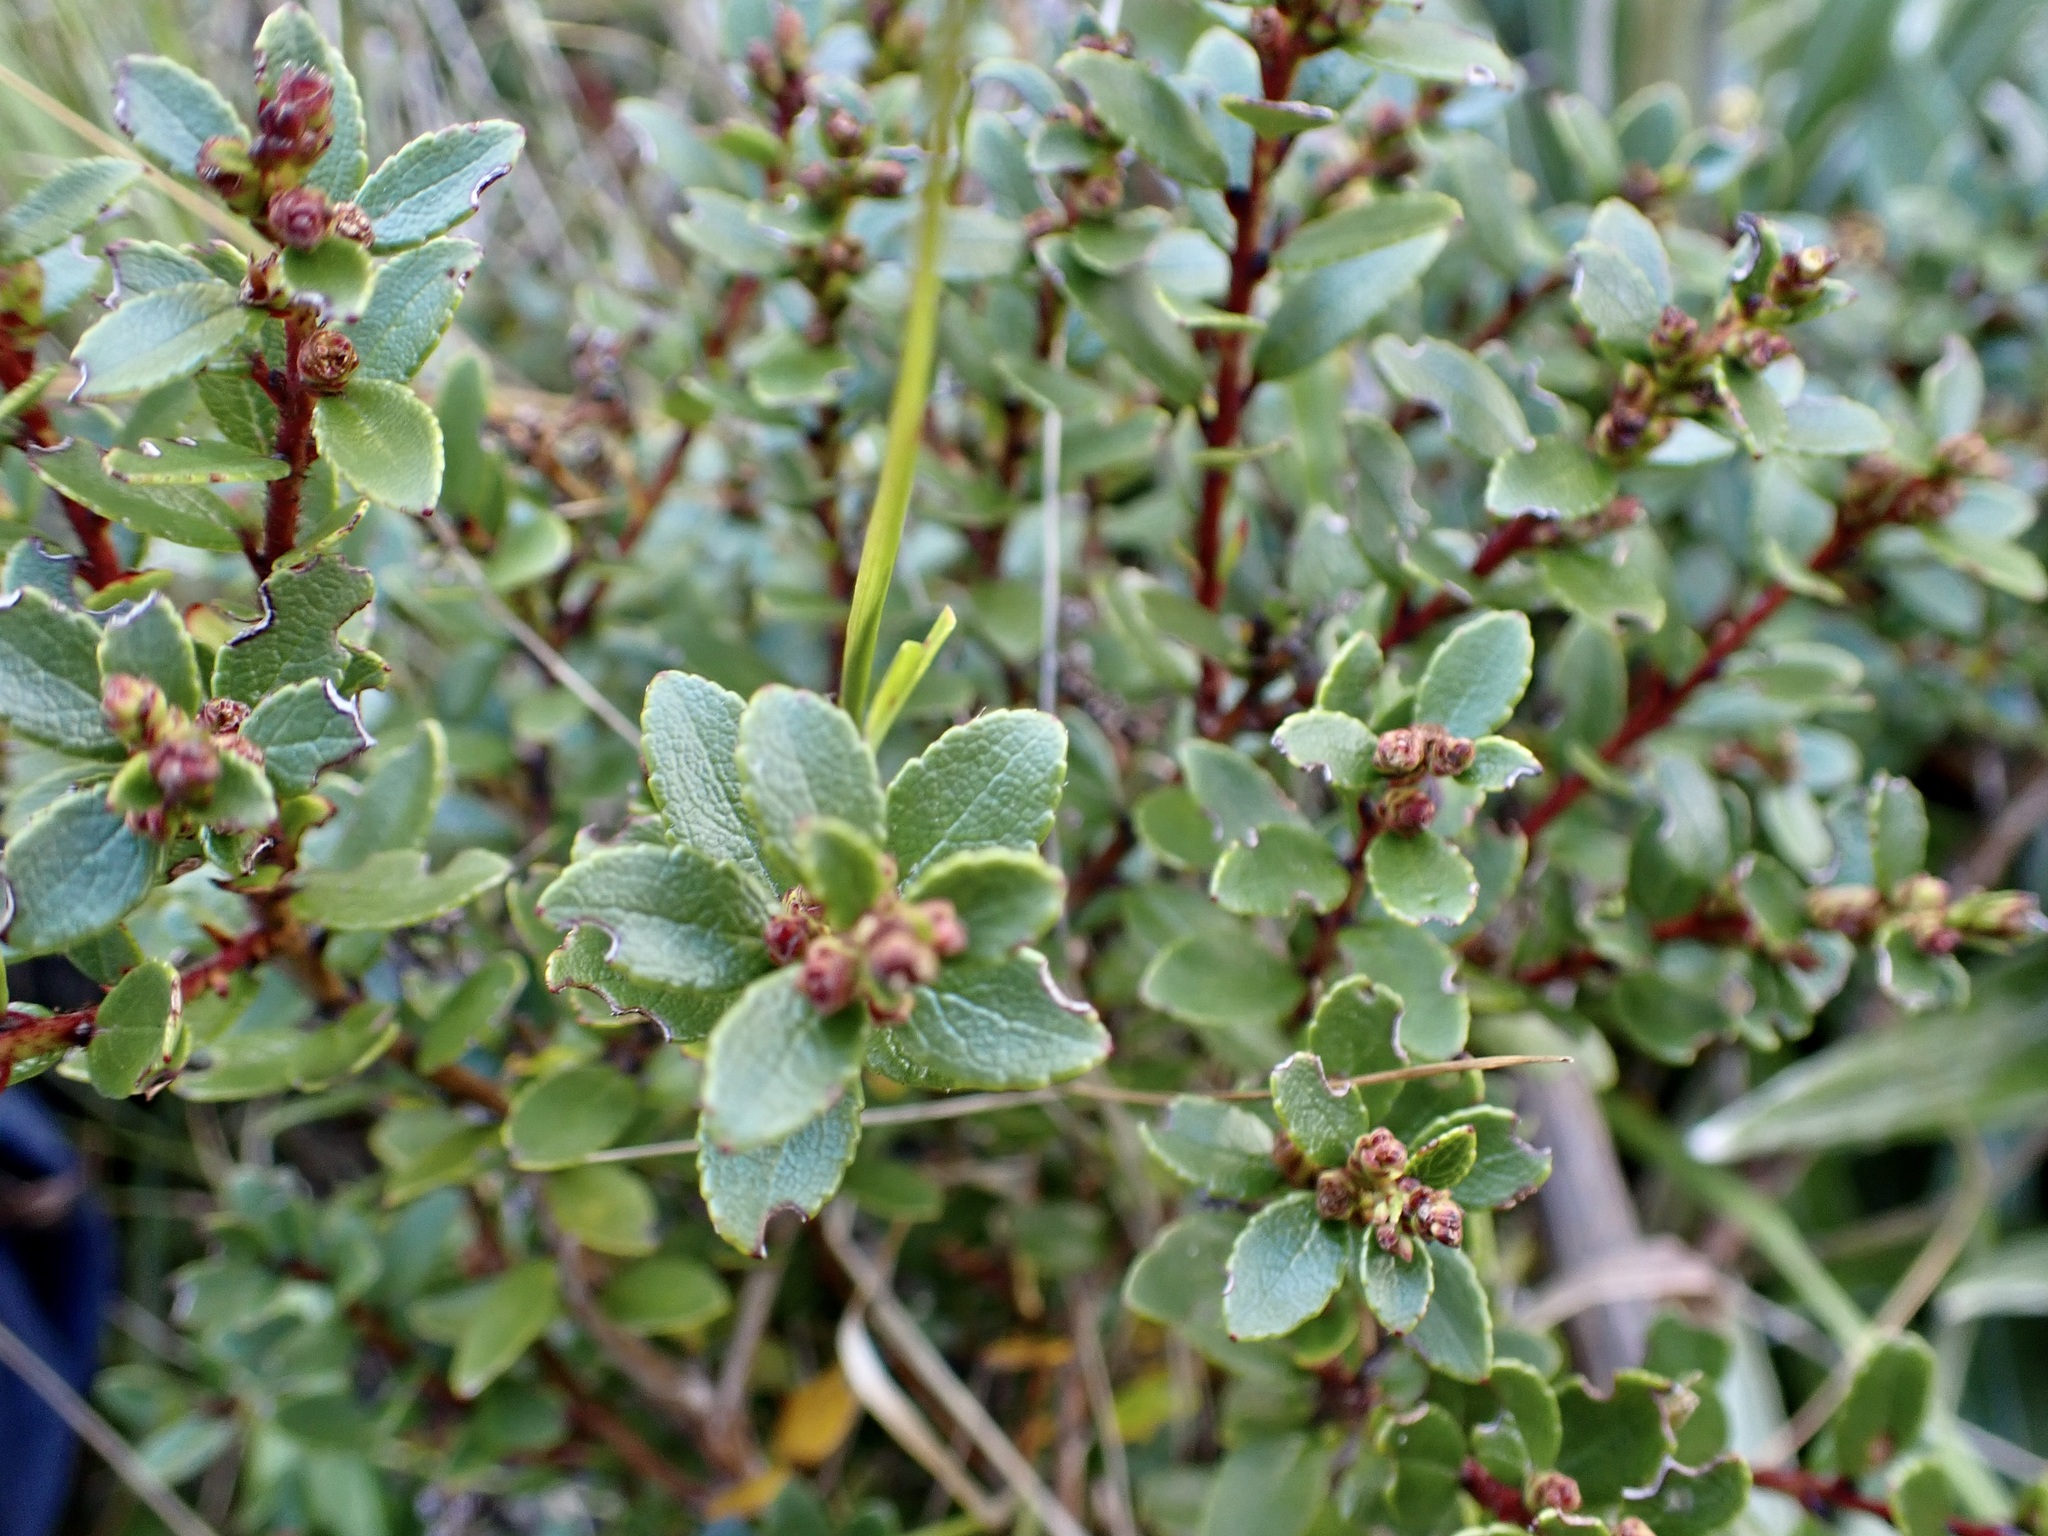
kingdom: Plantae
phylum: Tracheophyta
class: Magnoliopsida
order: Ericales
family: Ericaceae
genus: Gaultheria
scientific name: Gaultheria crassa
